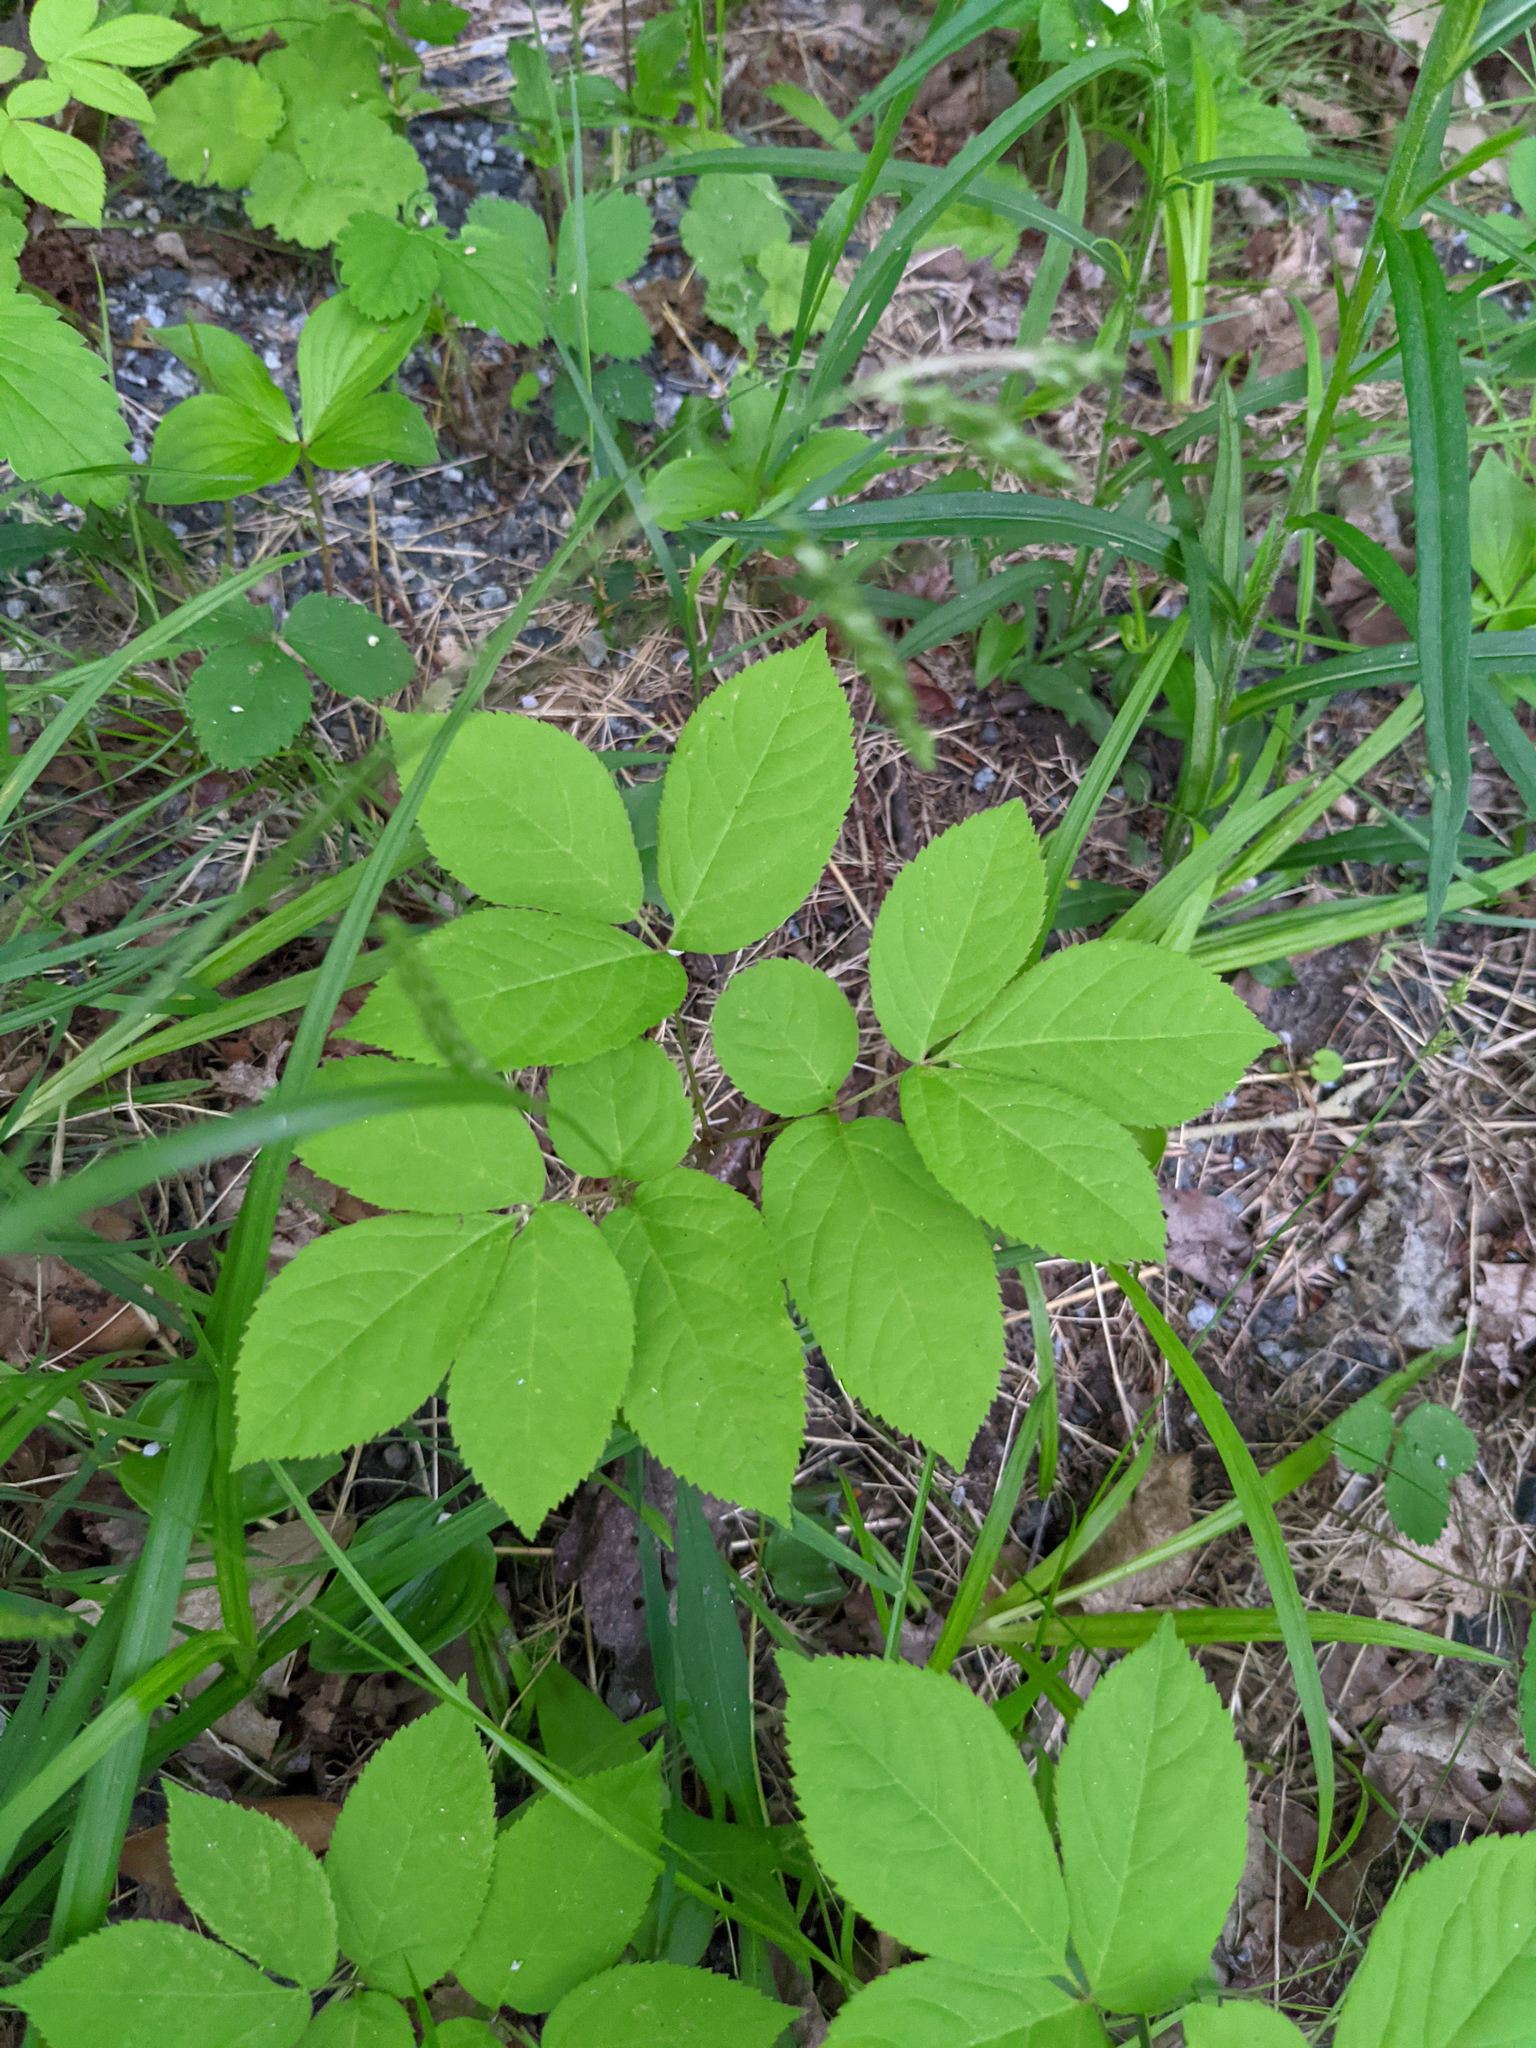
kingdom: Plantae
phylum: Tracheophyta
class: Magnoliopsida
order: Apiales
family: Araliaceae
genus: Aralia
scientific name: Aralia nudicaulis
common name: Wild sarsaparilla
